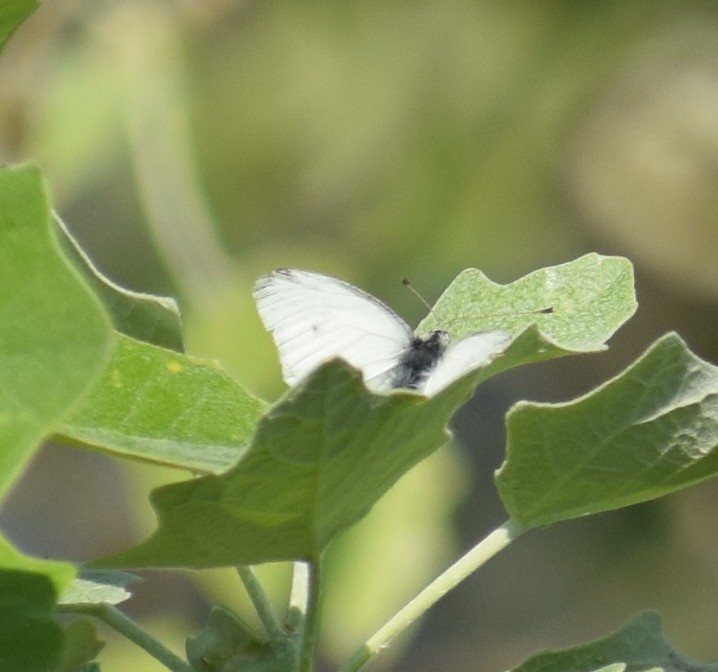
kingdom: Animalia
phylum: Arthropoda
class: Insecta
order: Lepidoptera
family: Pieridae
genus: Pieris
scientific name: Pieris rapae
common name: Small white
